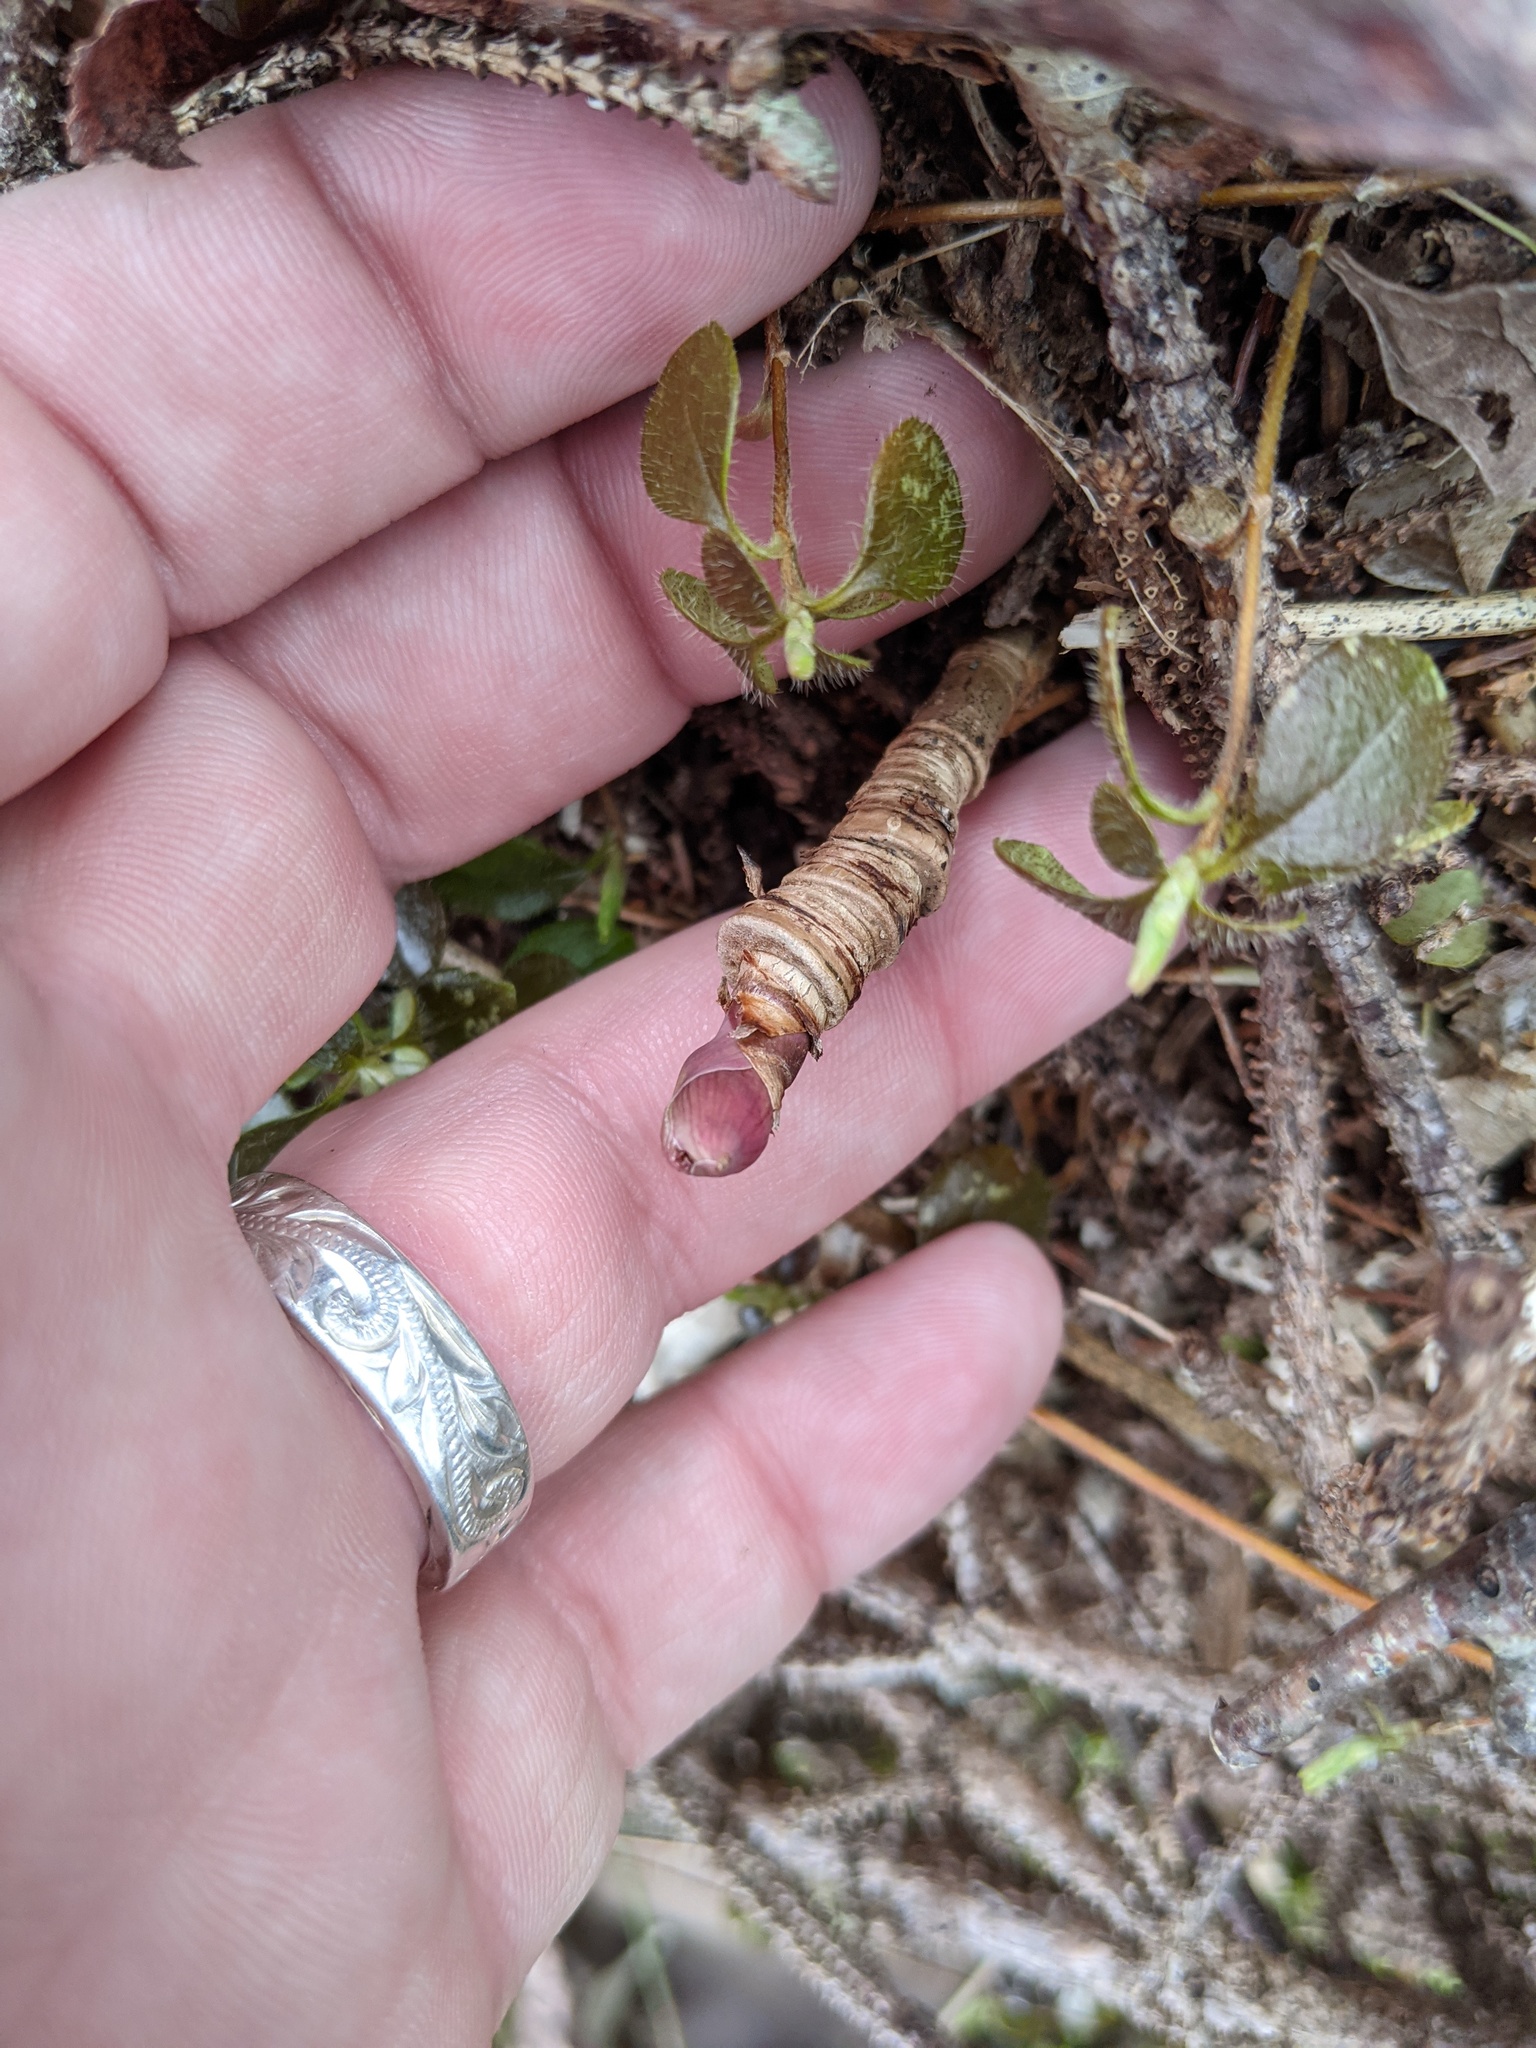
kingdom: Plantae
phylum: Tracheophyta
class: Magnoliopsida
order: Apiales
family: Araliaceae
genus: Aralia
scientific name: Aralia nudicaulis
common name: Wild sarsaparilla
